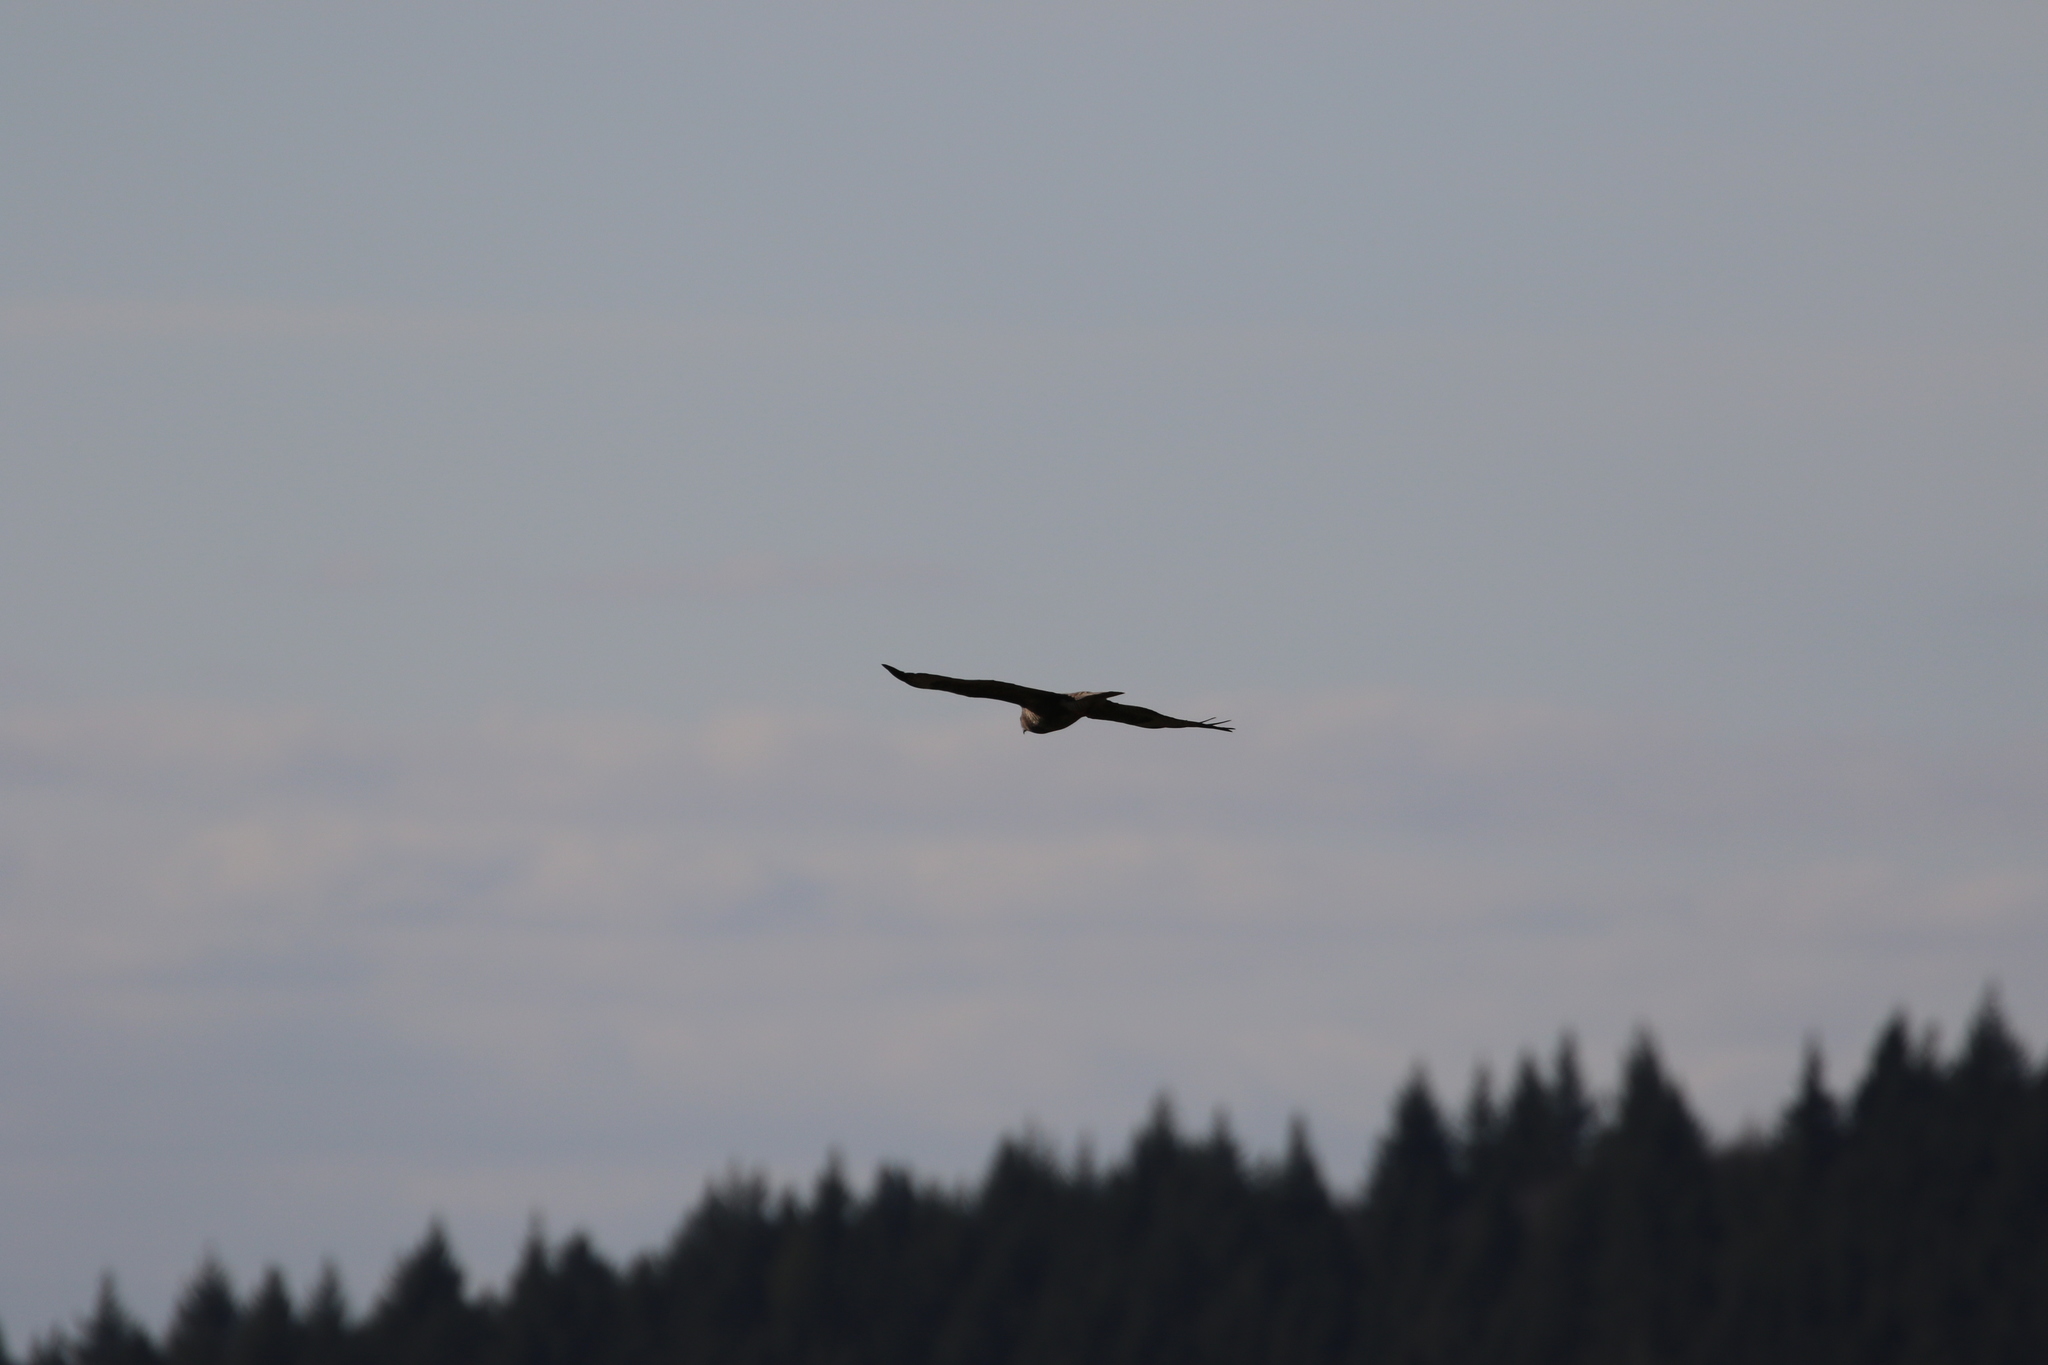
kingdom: Animalia
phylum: Chordata
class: Aves
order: Accipitriformes
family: Accipitridae
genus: Buteo
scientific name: Buteo buteo
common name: Common buzzard
